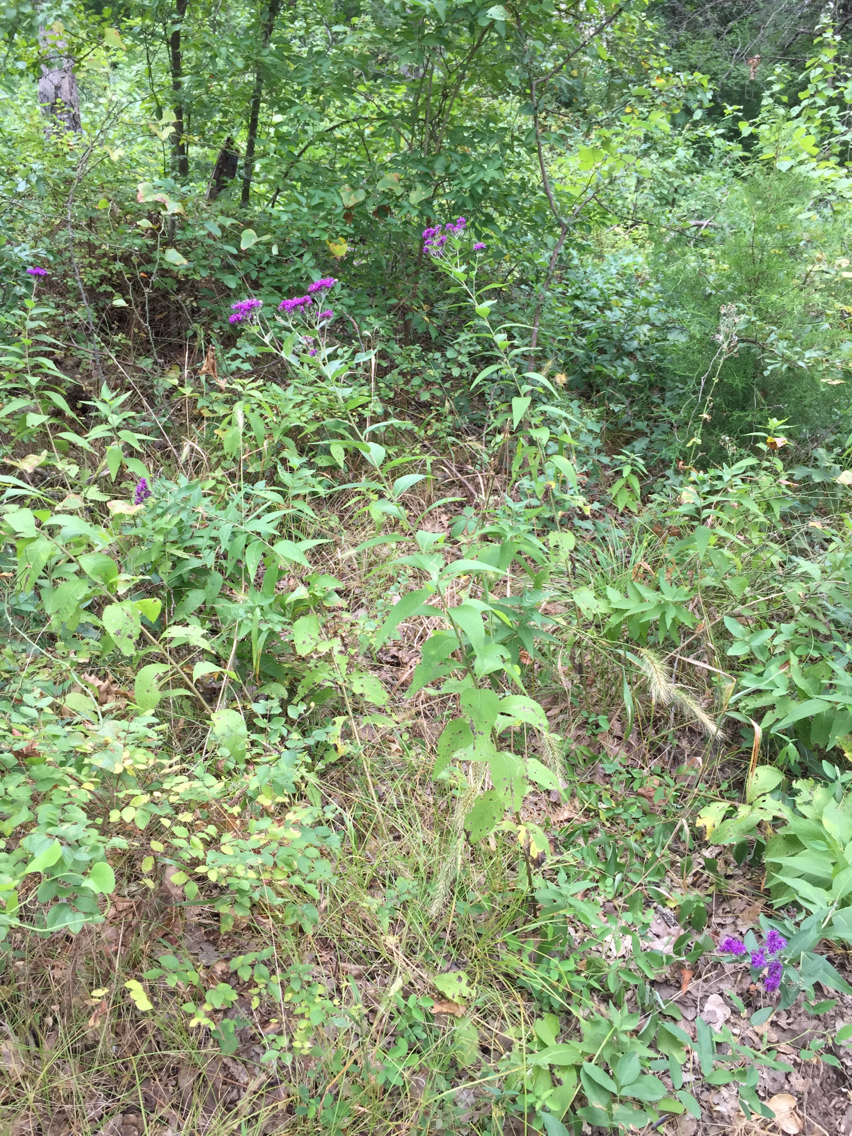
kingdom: Plantae
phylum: Tracheophyta
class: Magnoliopsida
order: Asterales
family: Asteraceae
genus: Vernonia
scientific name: Vernonia baldwinii
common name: Western ironweed
